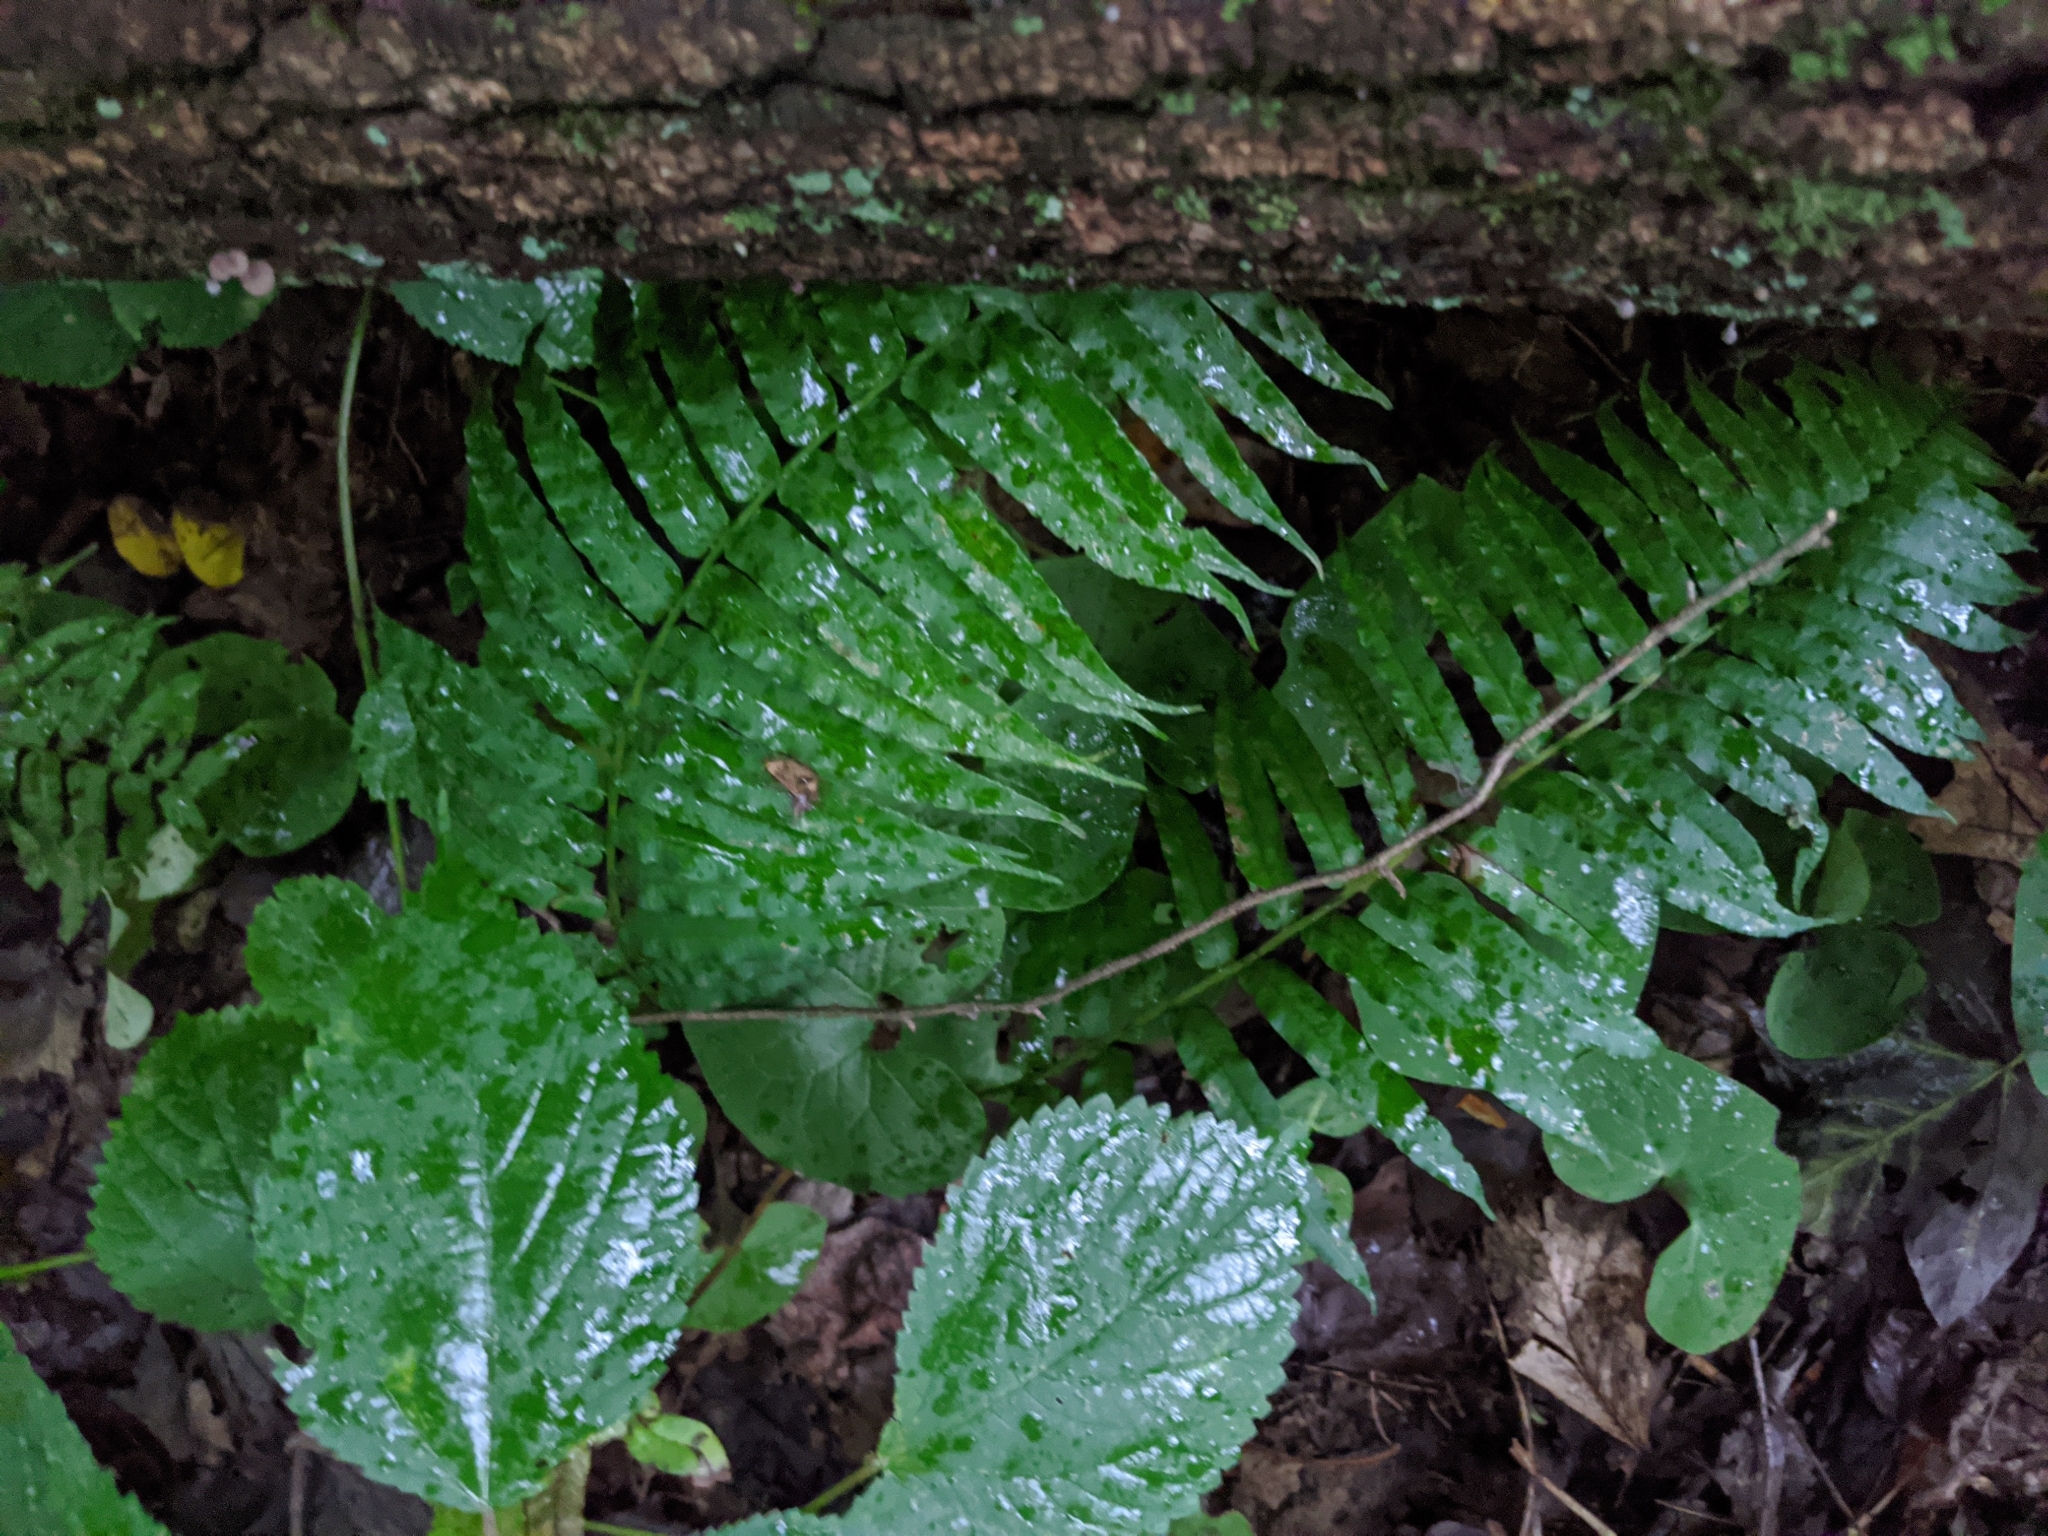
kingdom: Plantae
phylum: Tracheophyta
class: Polypodiopsida
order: Polypodiales
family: Diplaziopsidaceae
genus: Homalosorus
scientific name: Homalosorus pycnocarpos
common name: Glade fern
